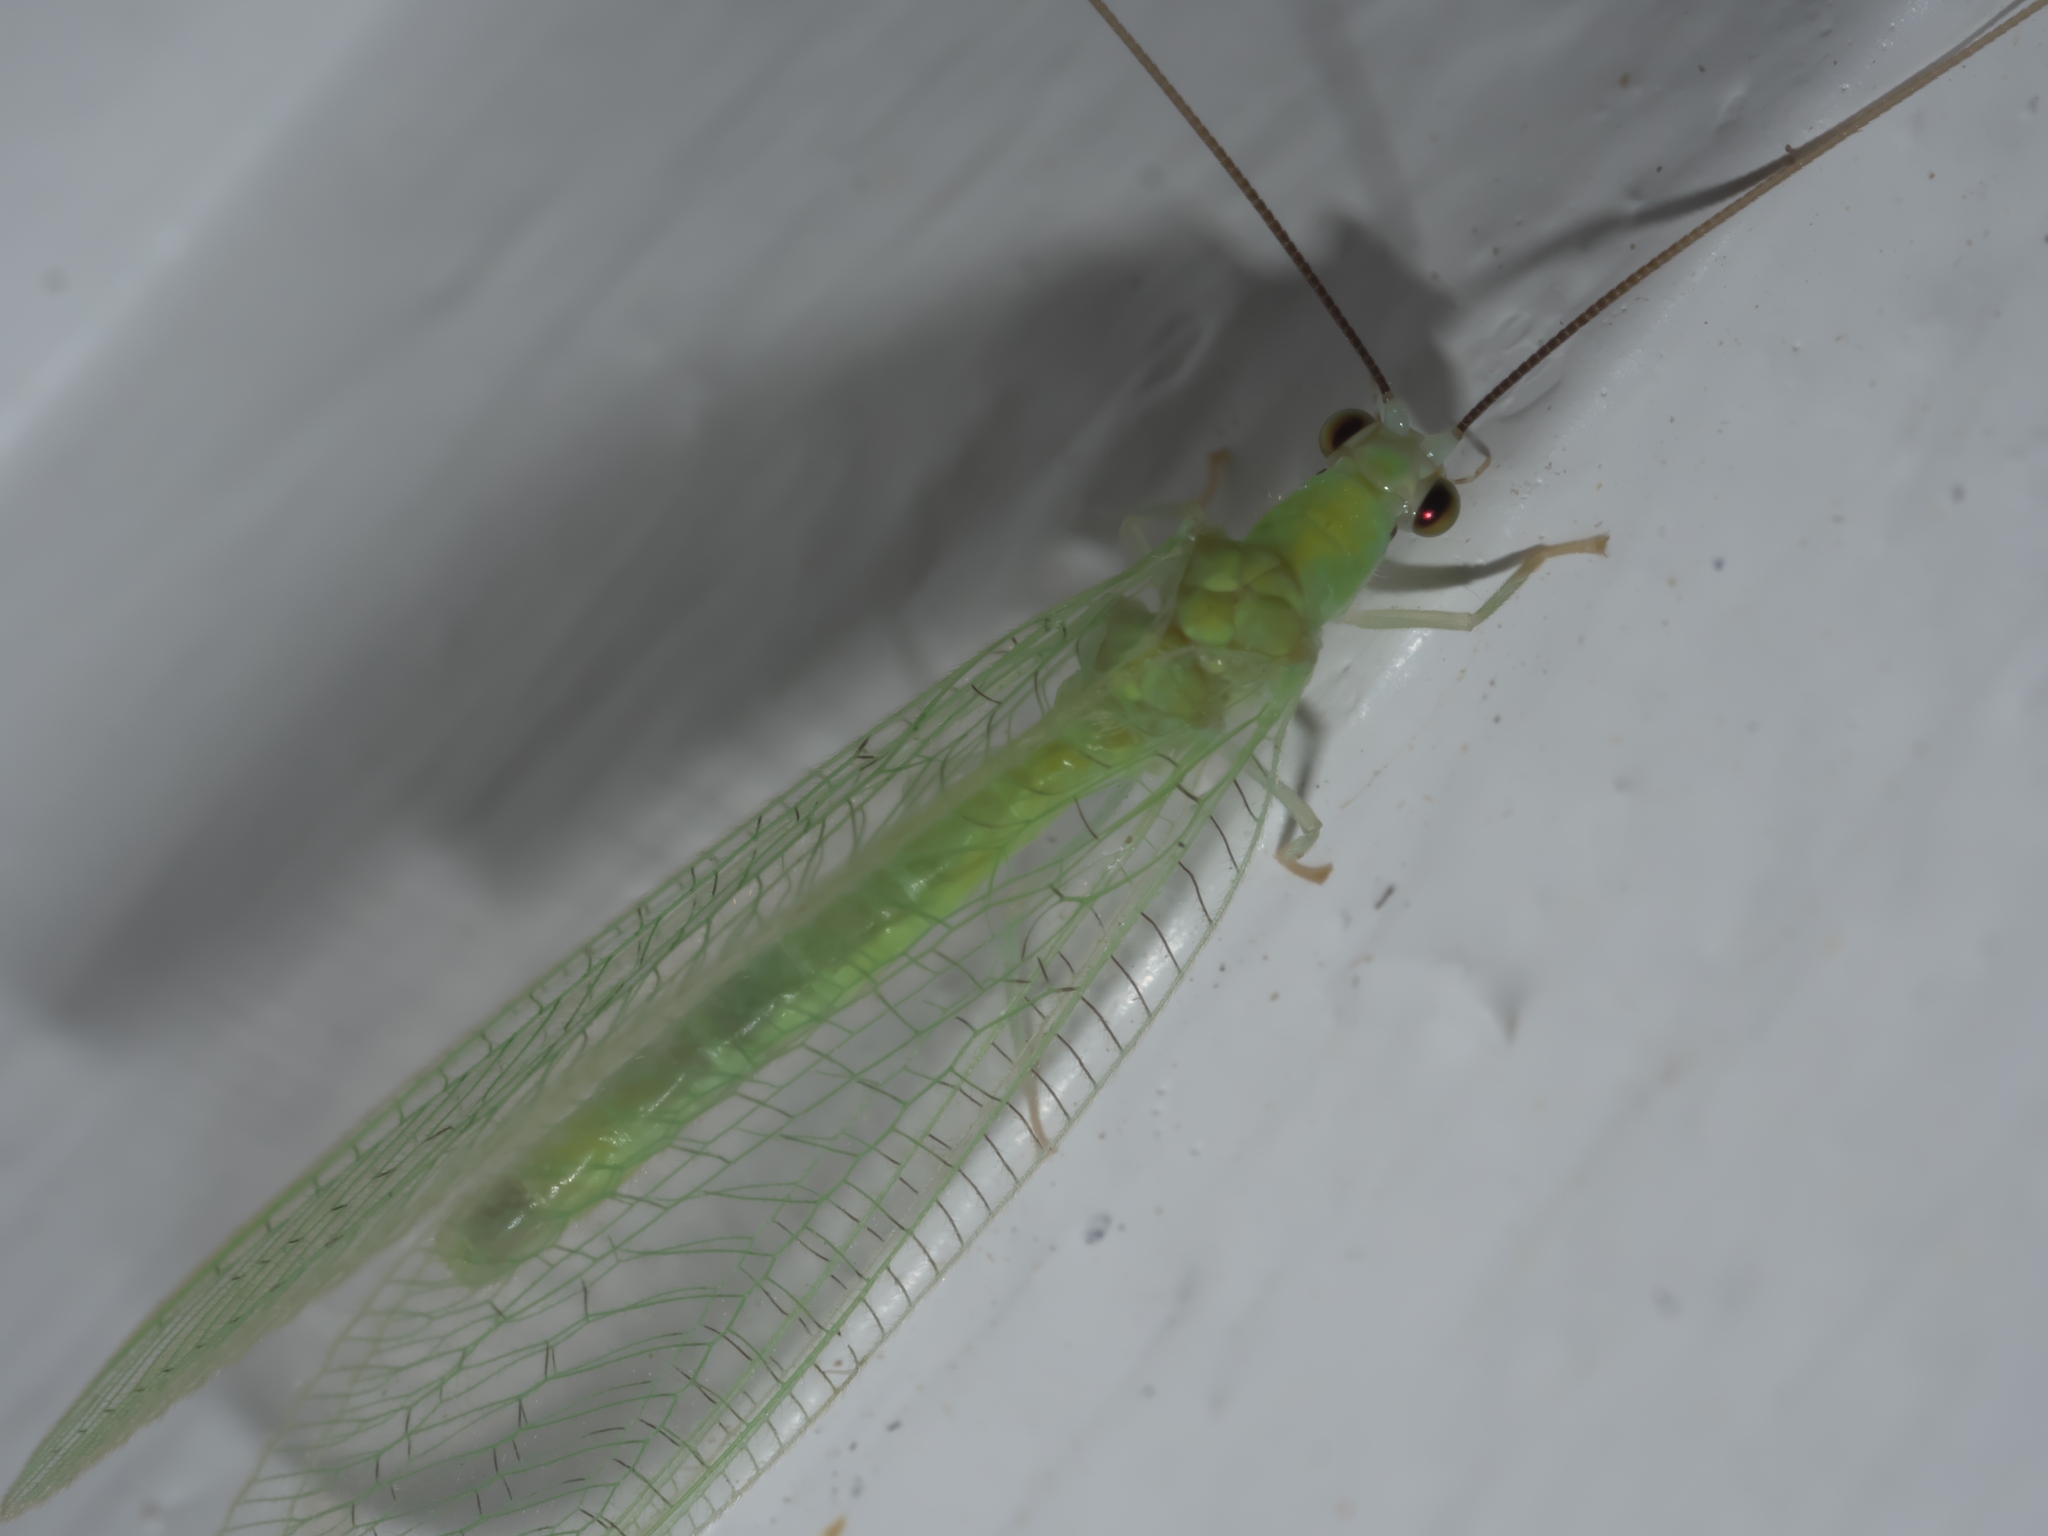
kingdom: Animalia
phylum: Arthropoda
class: Insecta
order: Neuroptera
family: Chrysopidae
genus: Chrysopa
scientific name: Chrysopa nigricornis
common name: Black-horned green lacewing
